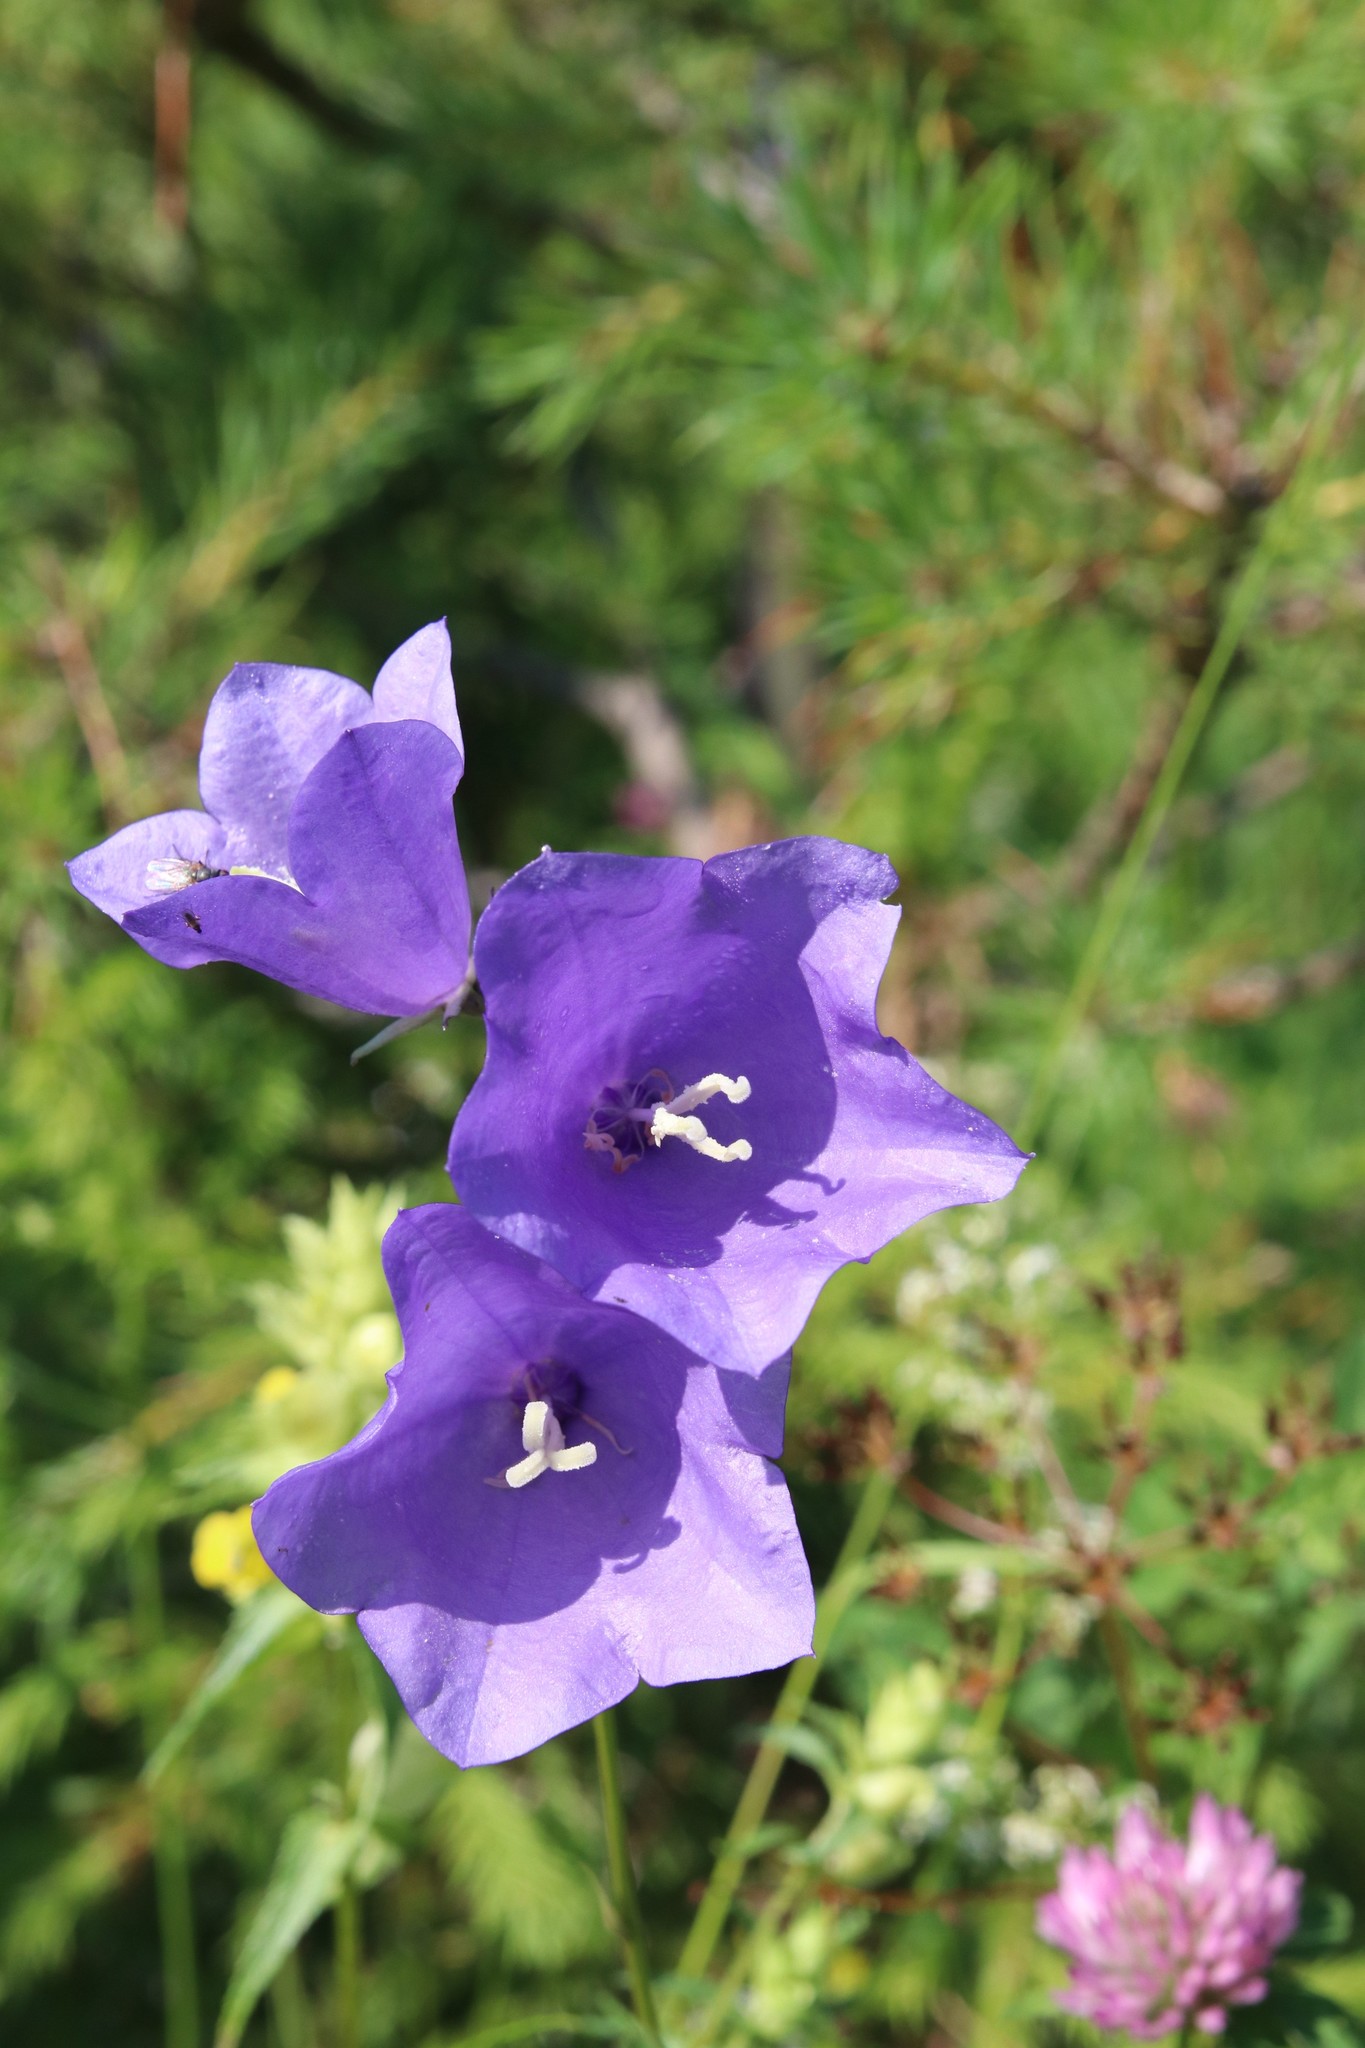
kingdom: Plantae
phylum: Tracheophyta
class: Magnoliopsida
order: Asterales
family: Campanulaceae
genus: Campanula
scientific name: Campanula persicifolia
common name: Peach-leaved bellflower
